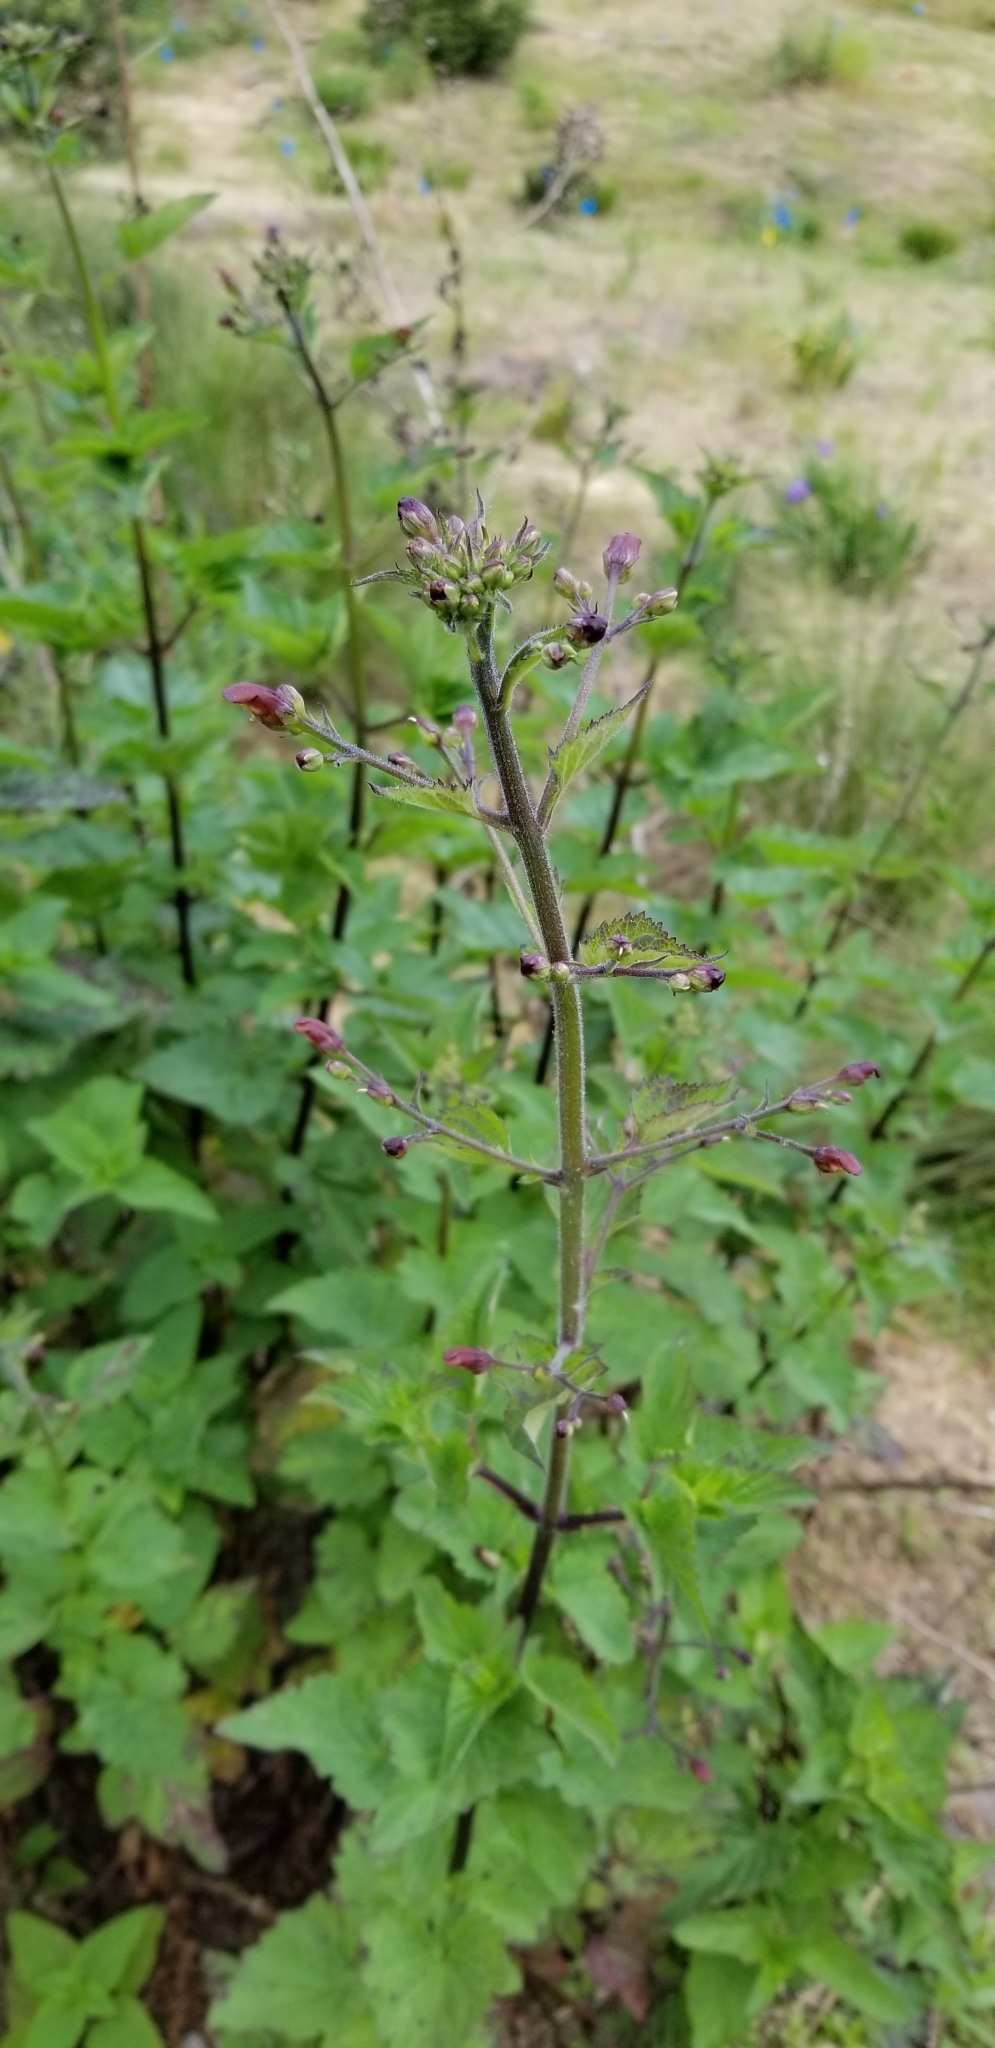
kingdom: Plantae
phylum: Tracheophyta
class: Magnoliopsida
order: Lamiales
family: Scrophulariaceae
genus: Scrophularia
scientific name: Scrophularia californica
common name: California figwort
